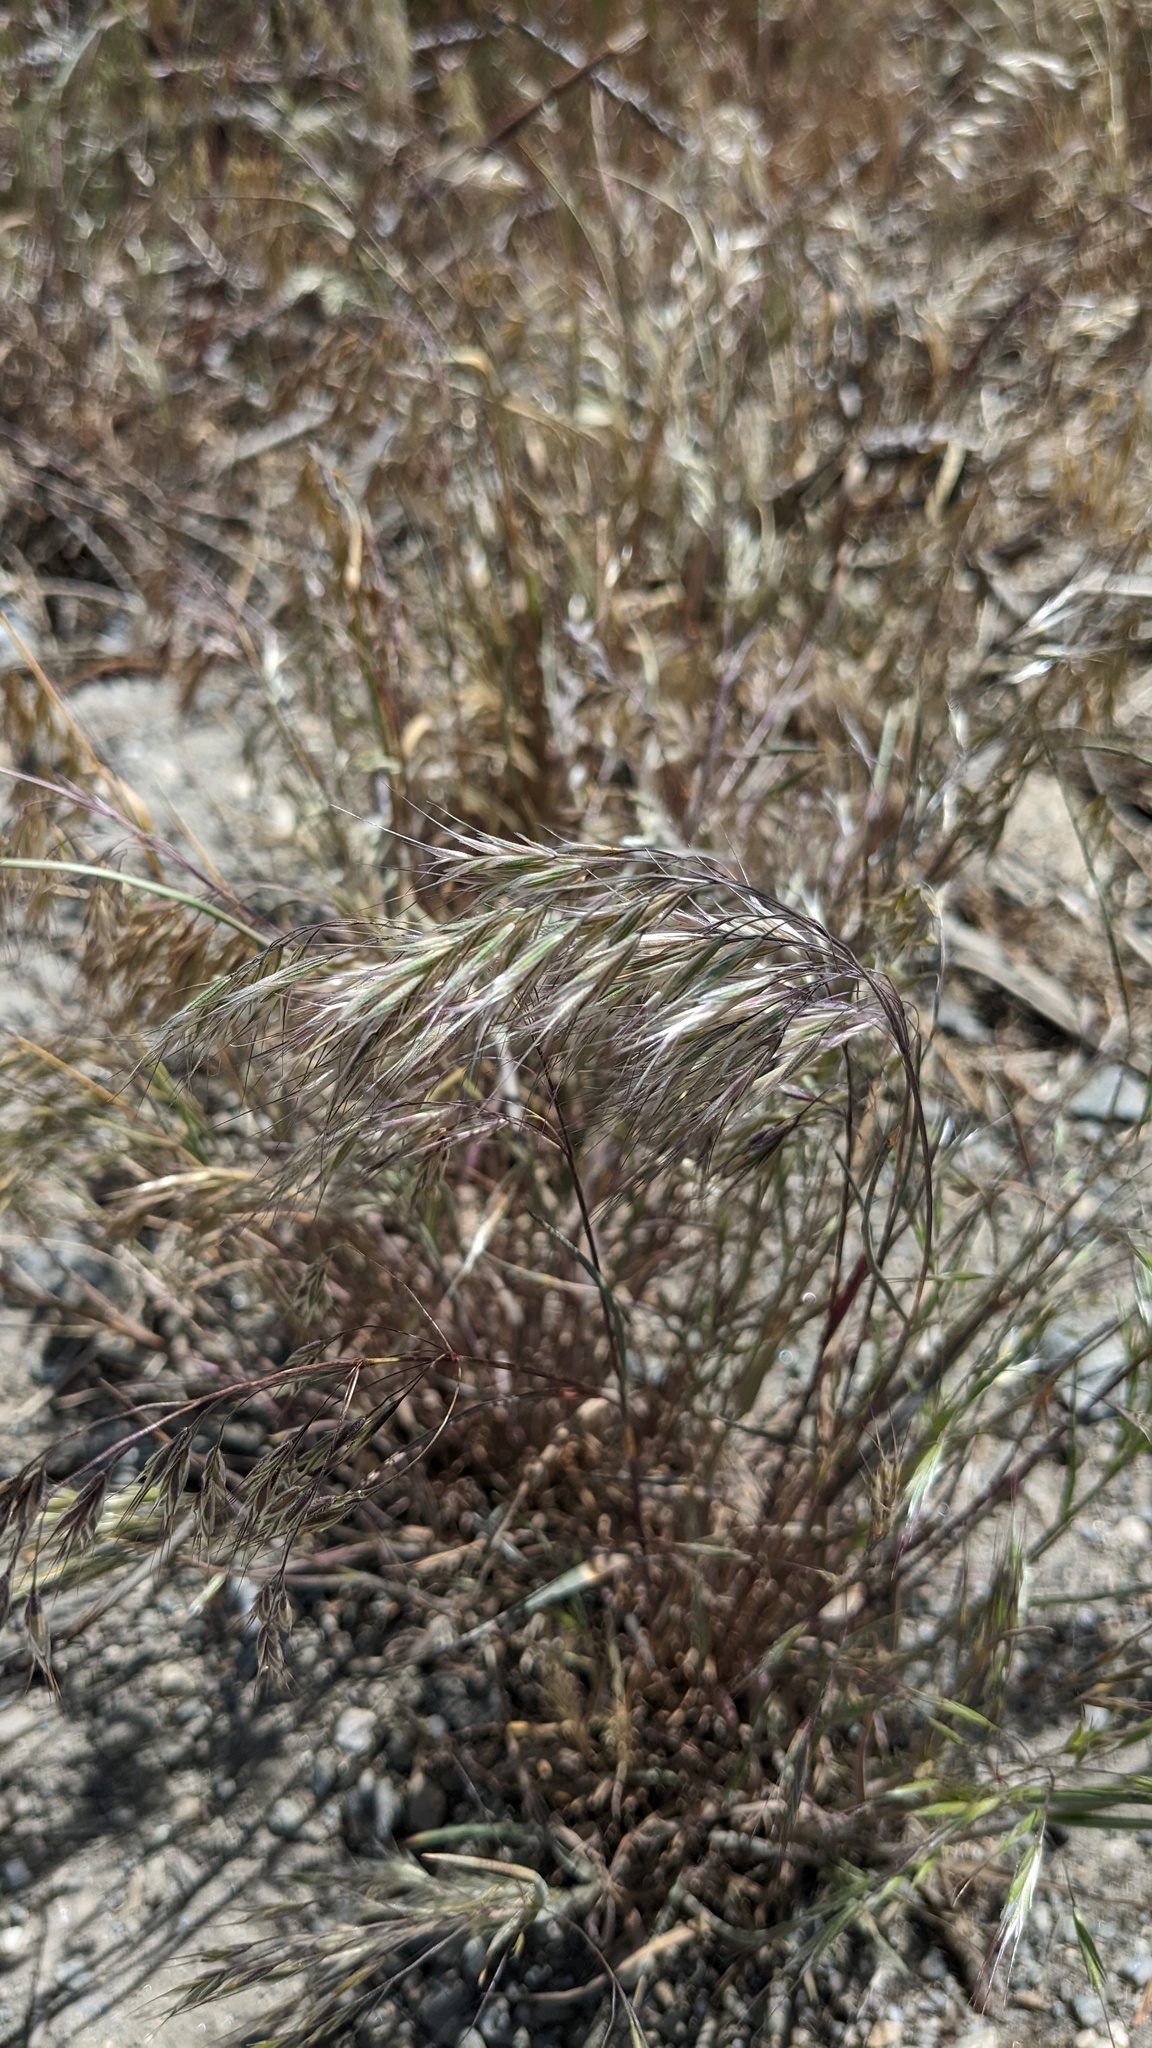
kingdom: Plantae
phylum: Tracheophyta
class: Liliopsida
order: Poales
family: Poaceae
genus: Bromus
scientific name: Bromus tectorum
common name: Cheatgrass
